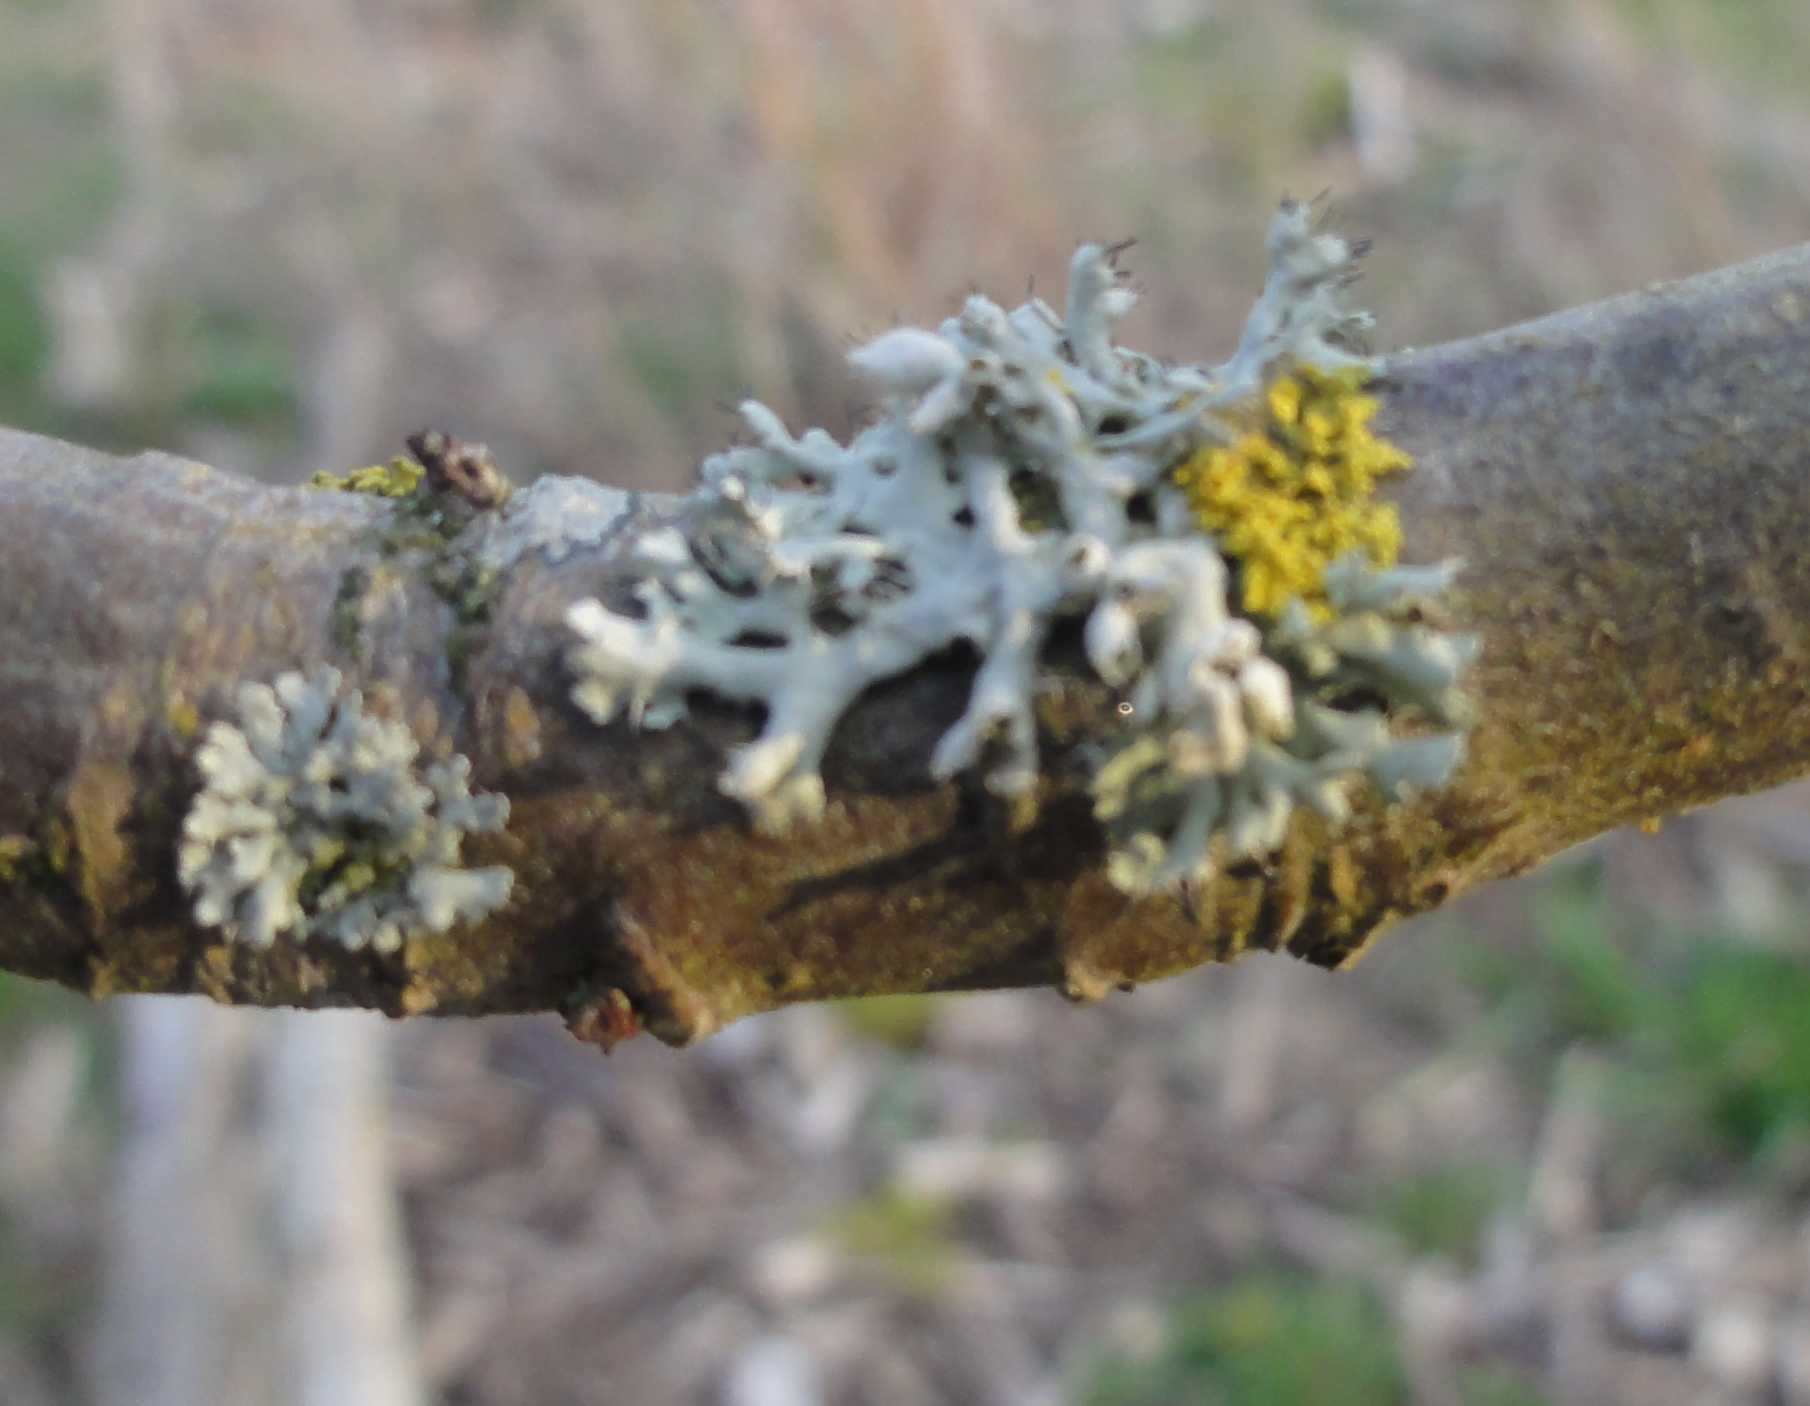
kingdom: Fungi
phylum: Ascomycota
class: Lecanoromycetes
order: Caliciales
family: Physciaceae
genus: Physcia
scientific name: Physcia
